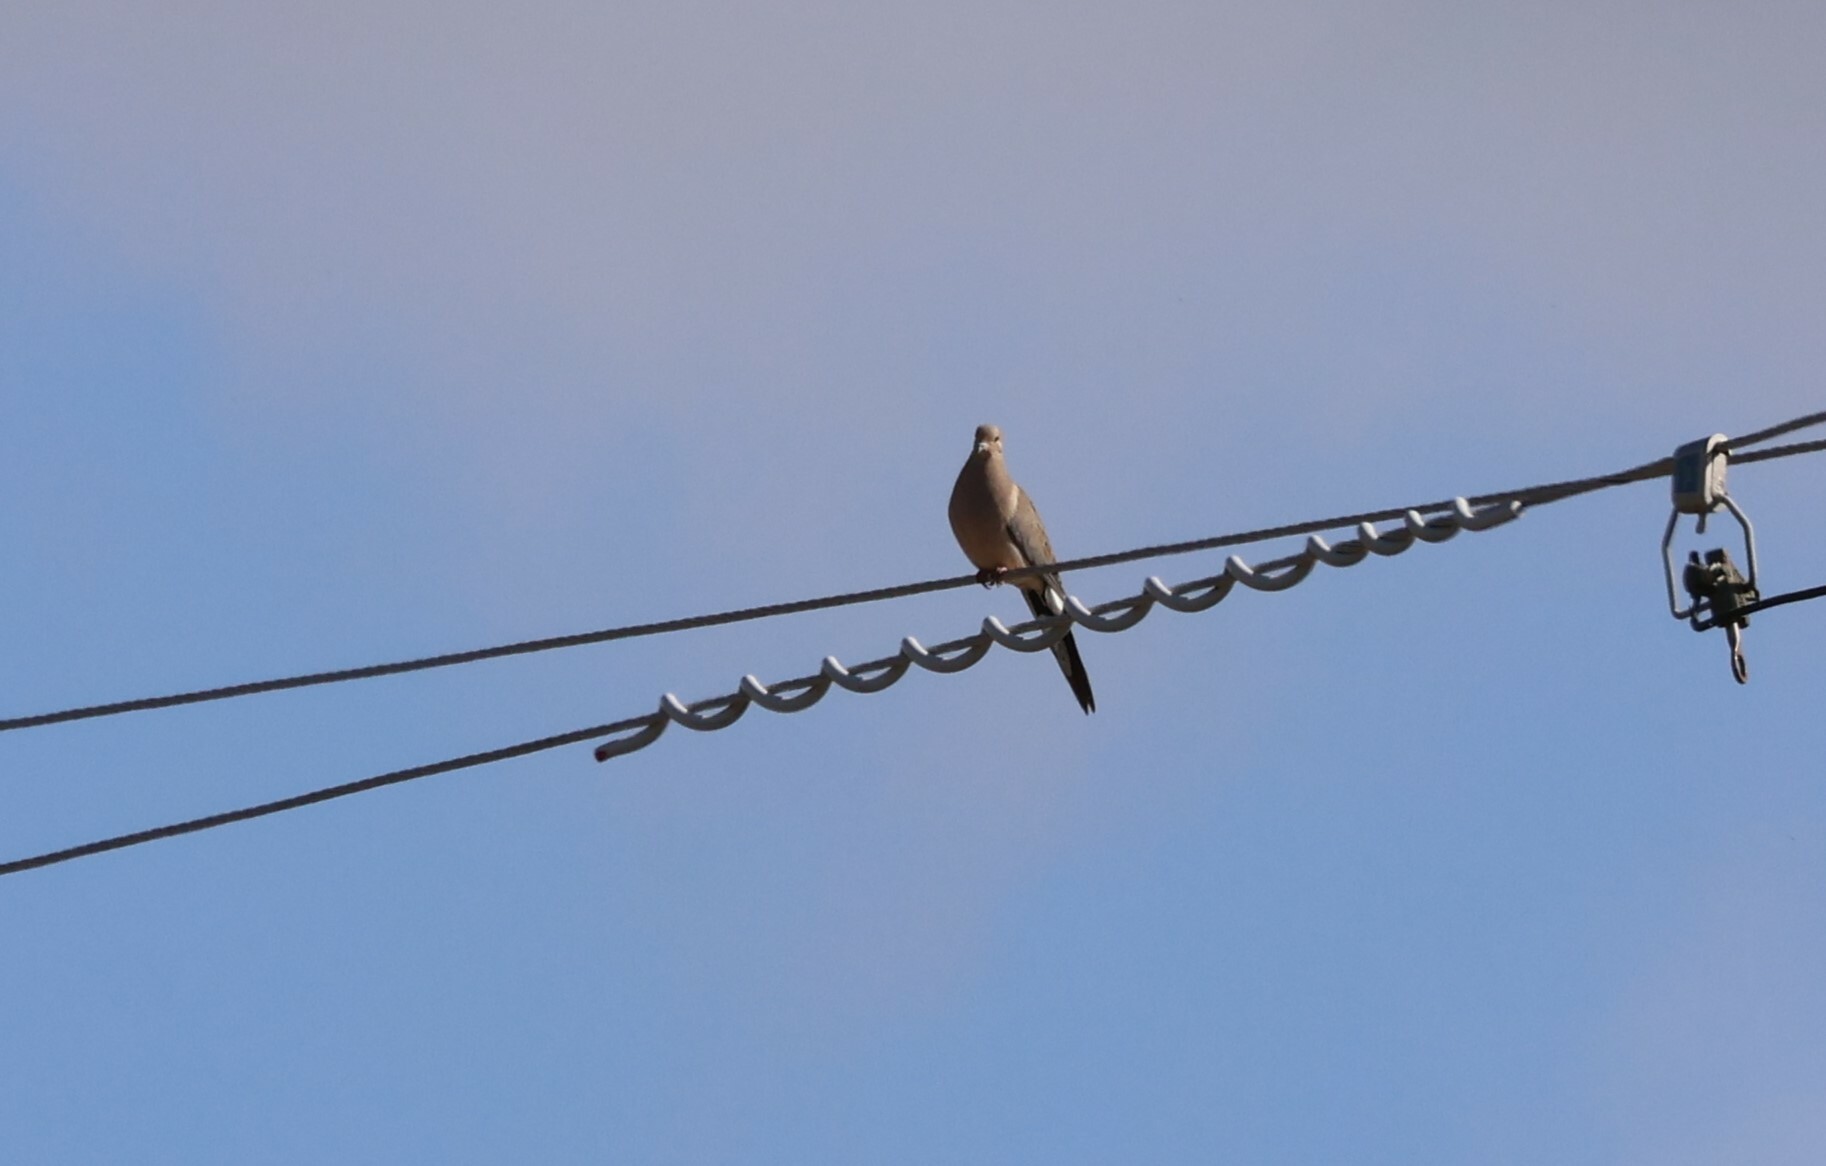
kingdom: Animalia
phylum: Chordata
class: Aves
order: Columbiformes
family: Columbidae
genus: Zenaida
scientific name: Zenaida macroura
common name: Mourning dove
